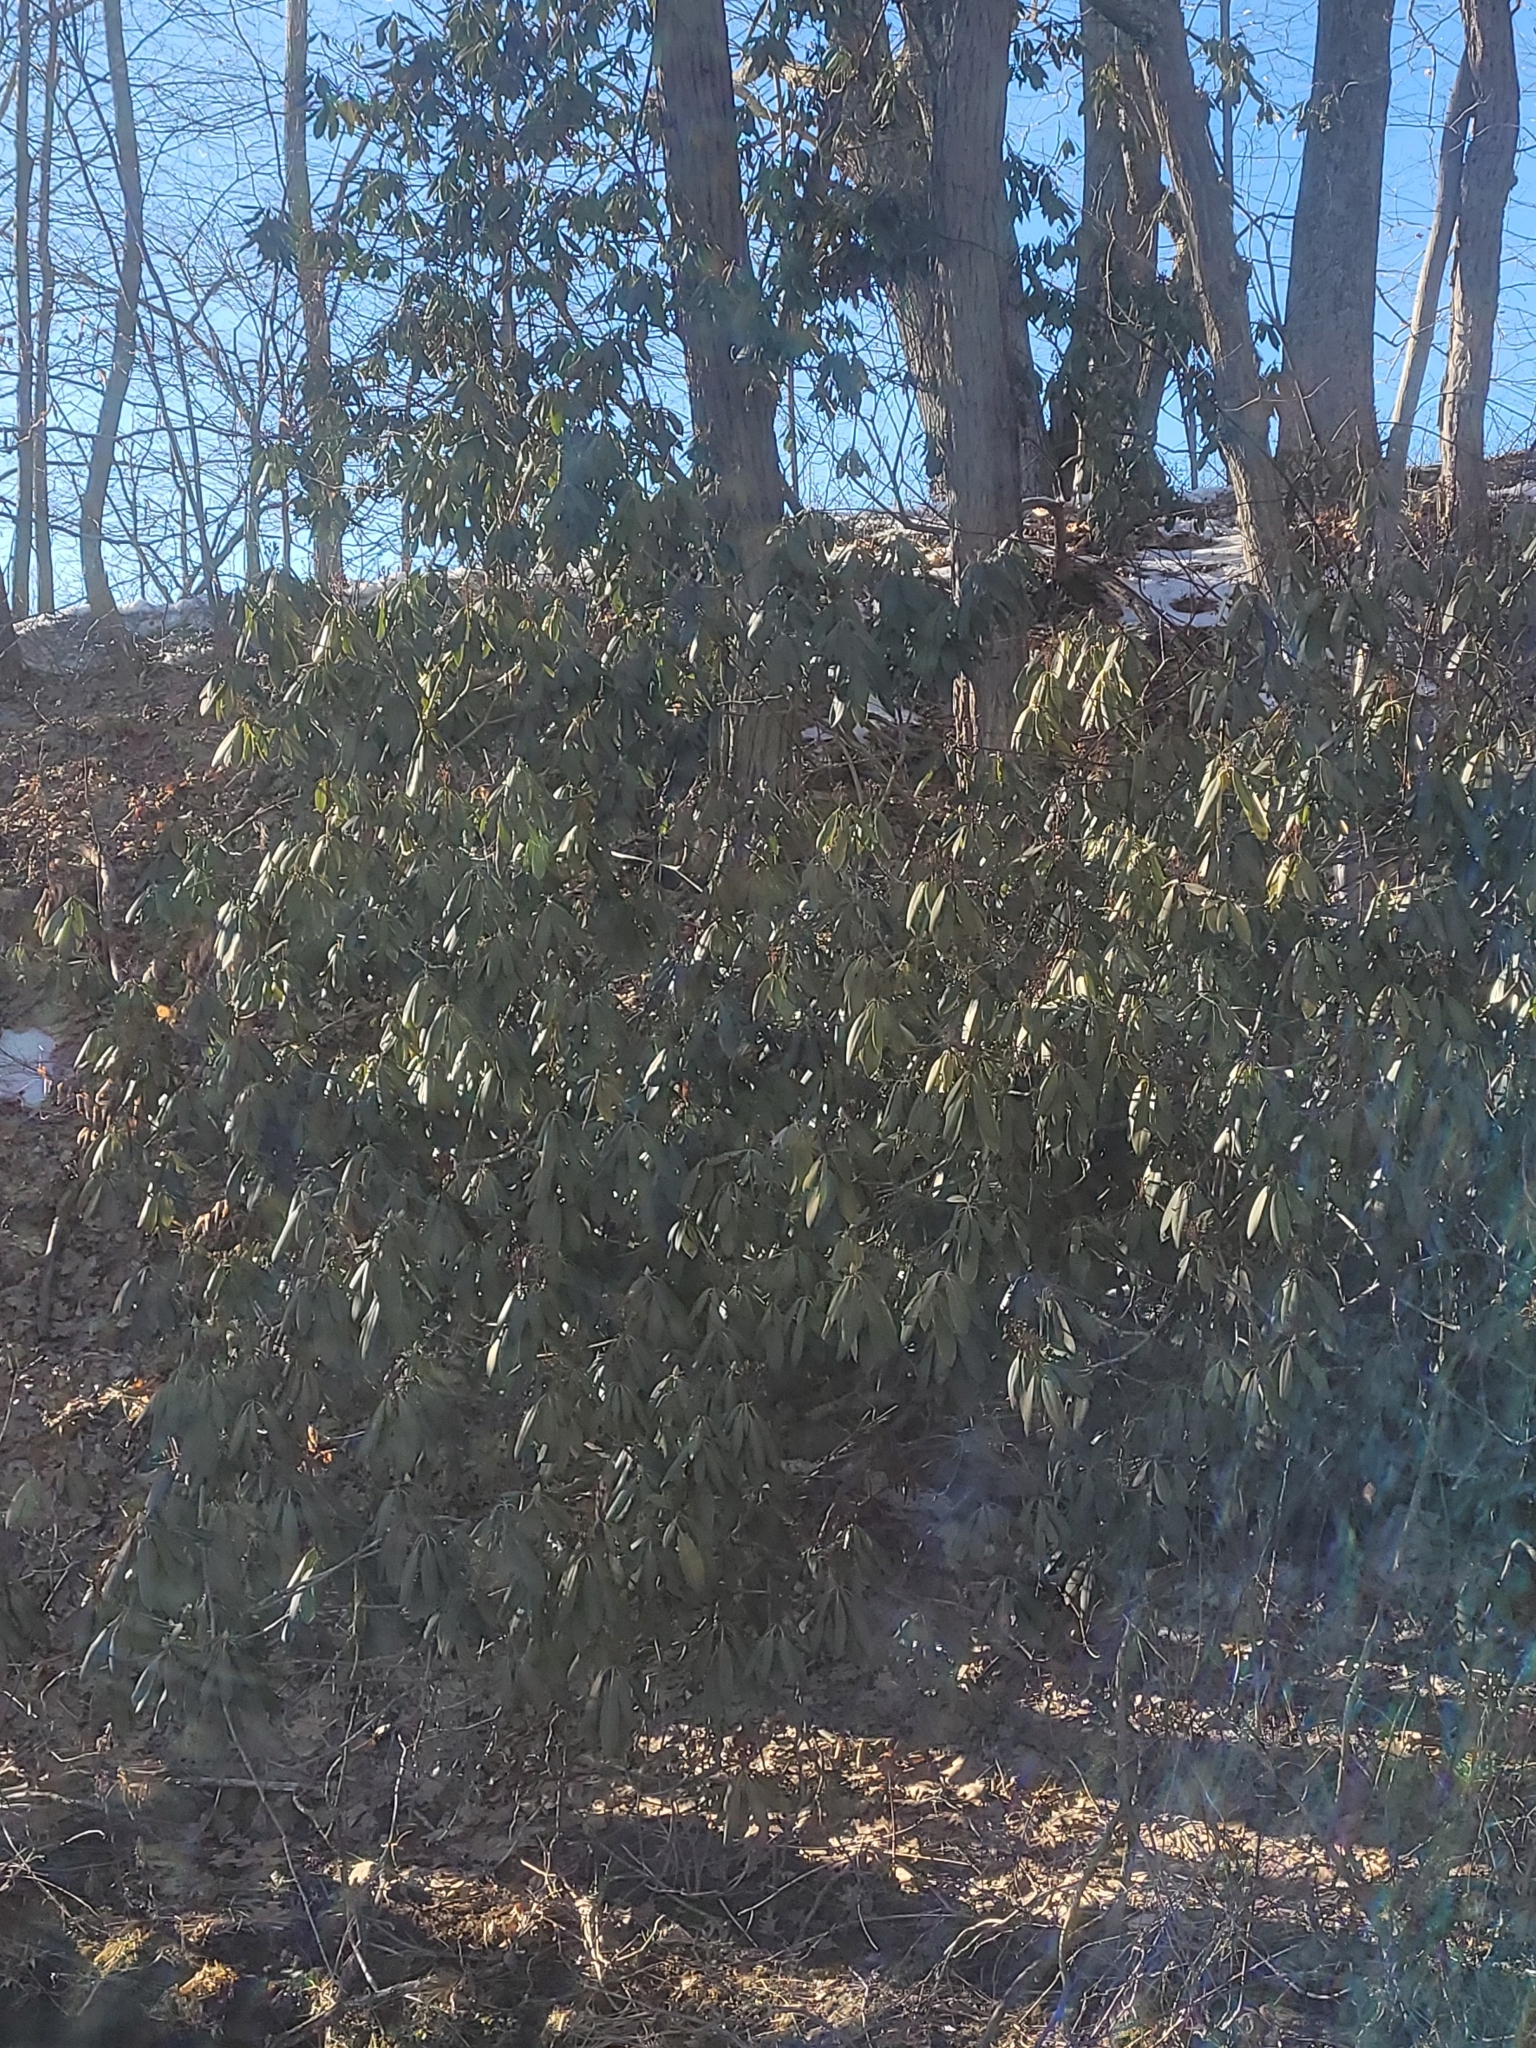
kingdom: Plantae
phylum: Tracheophyta
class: Magnoliopsida
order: Ericales
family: Ericaceae
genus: Rhododendron
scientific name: Rhododendron maximum
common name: Great rhododendron
